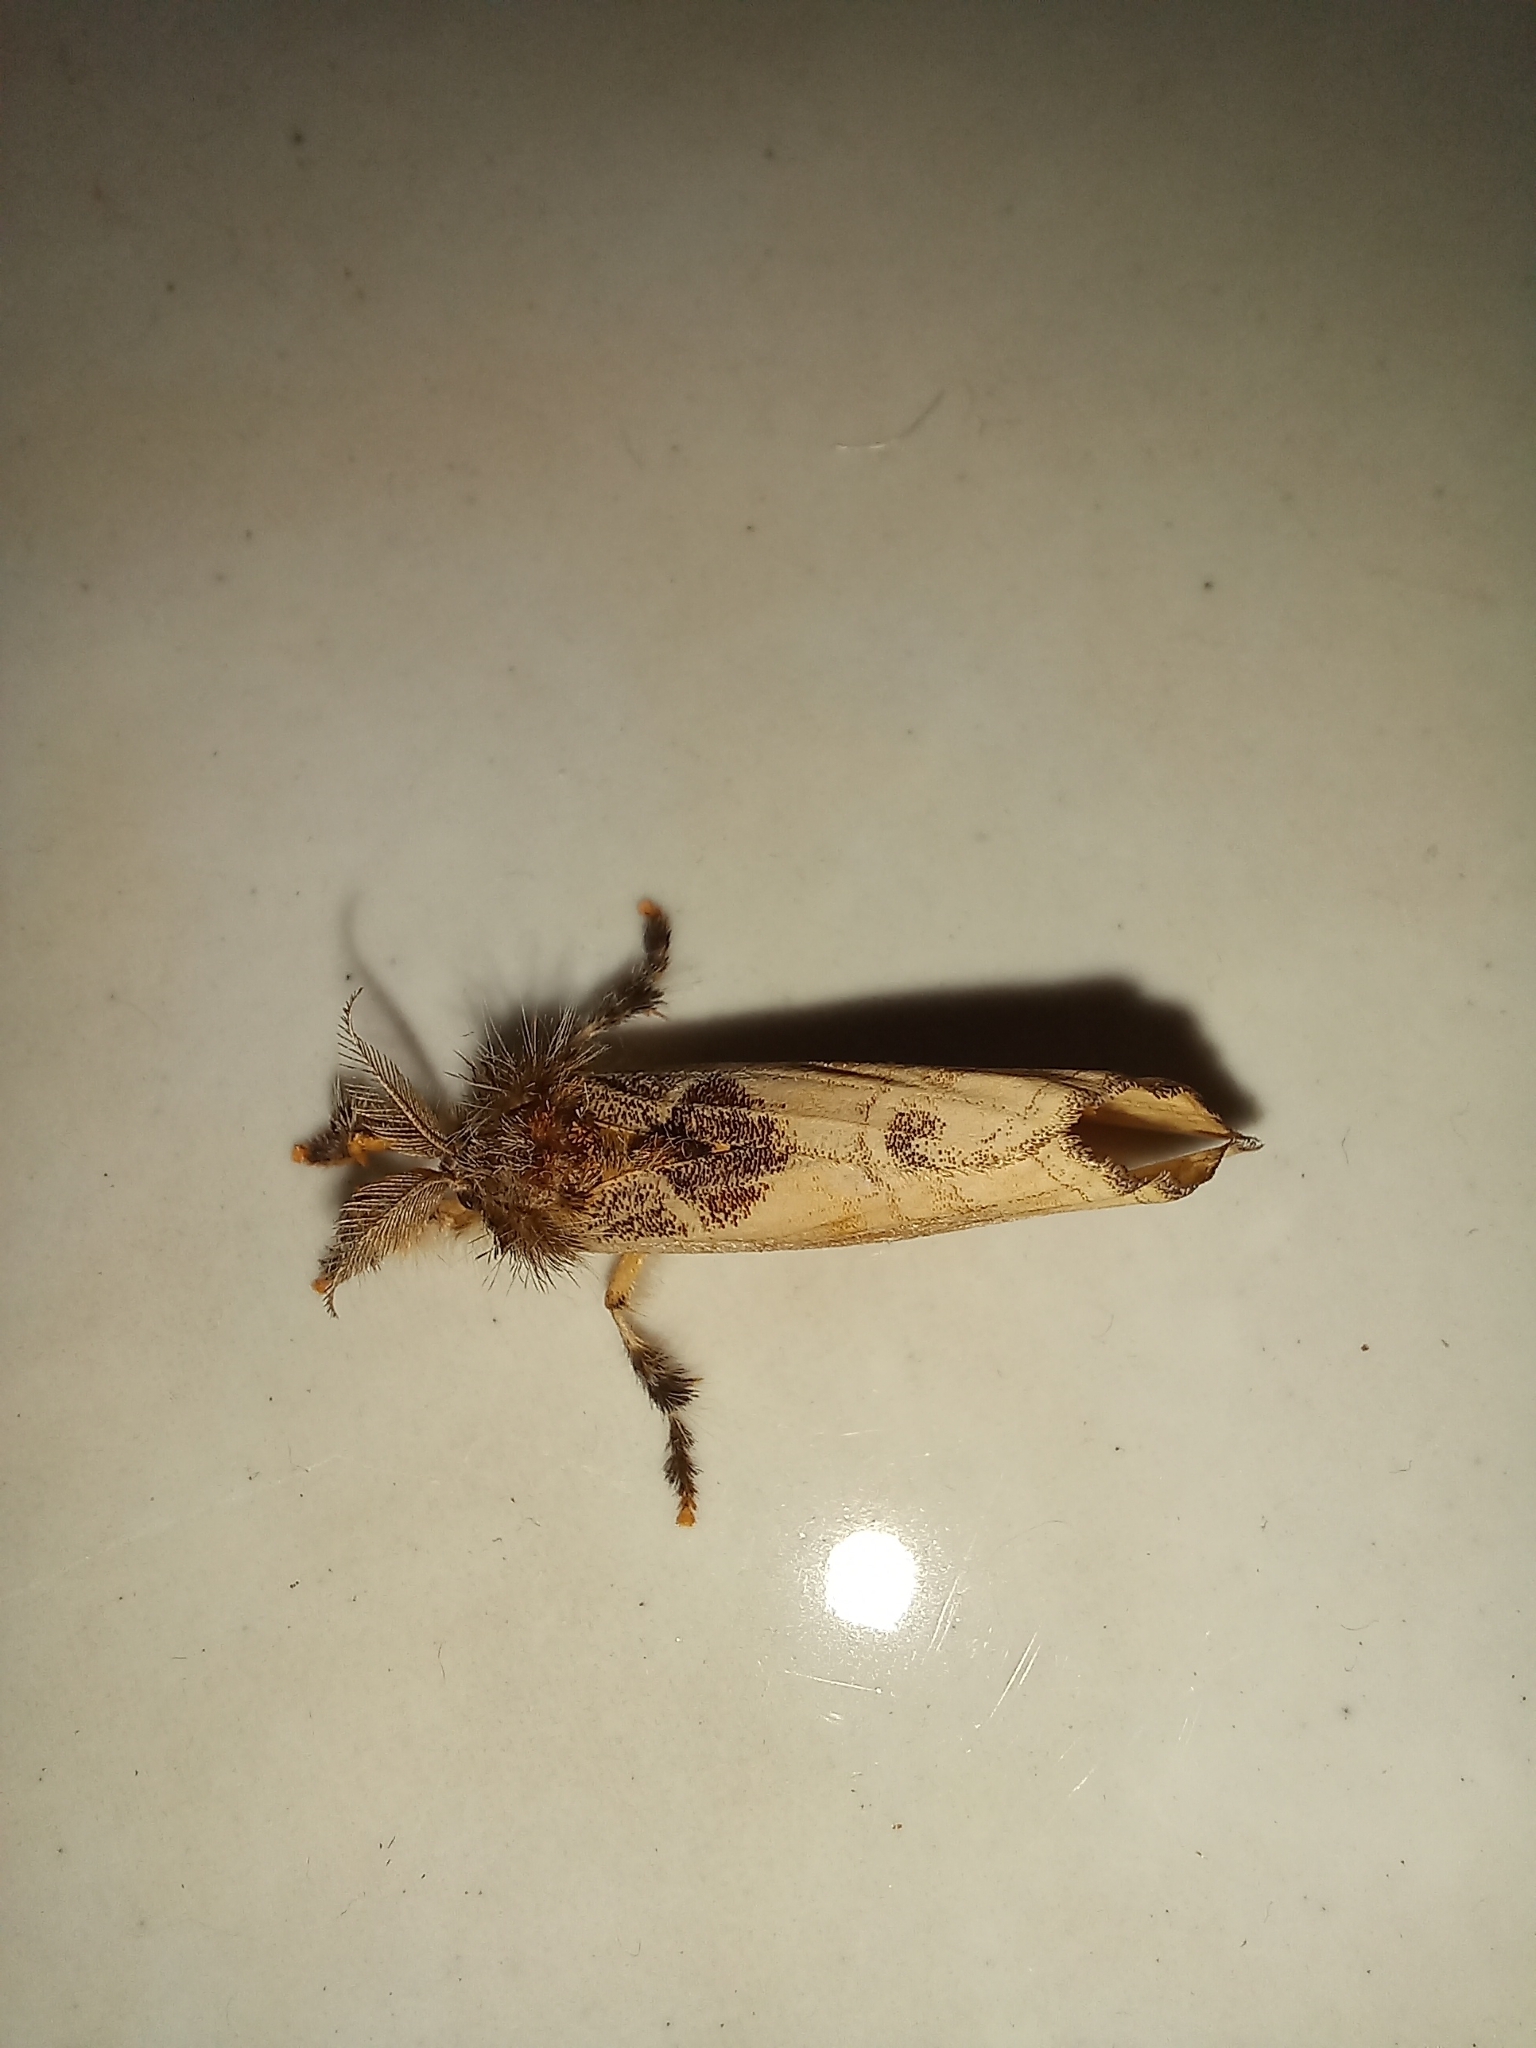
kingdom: Animalia
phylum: Arthropoda
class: Insecta
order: Lepidoptera
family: Erebidae
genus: Hemerophanes
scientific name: Hemerophanes libyra
